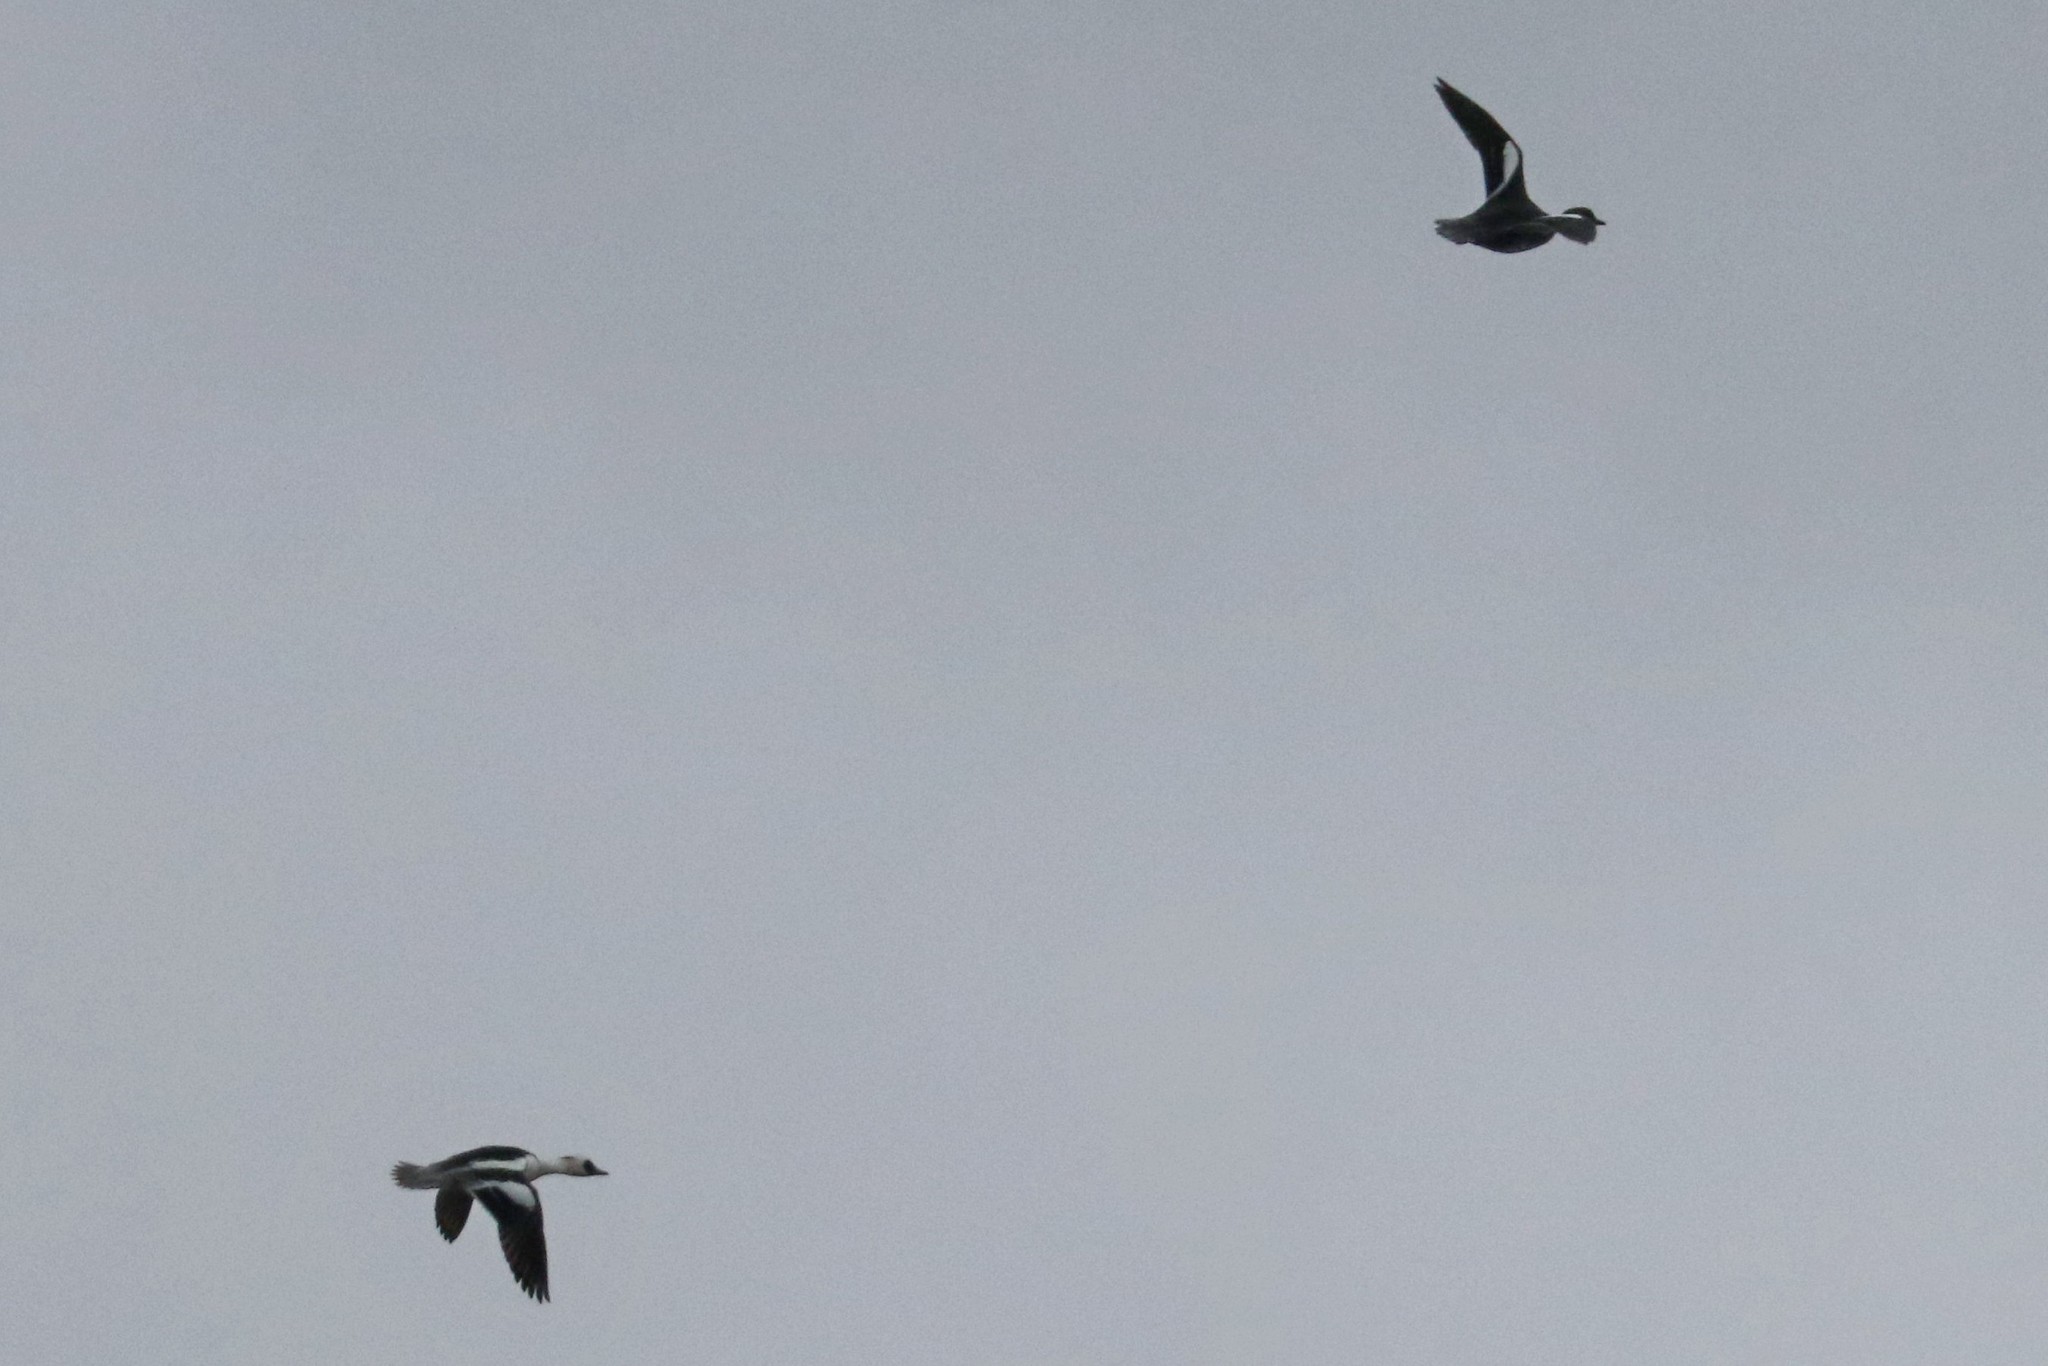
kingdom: Animalia
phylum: Chordata
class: Aves
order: Anseriformes
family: Anatidae
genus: Mergellus
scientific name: Mergellus albellus
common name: Smew
